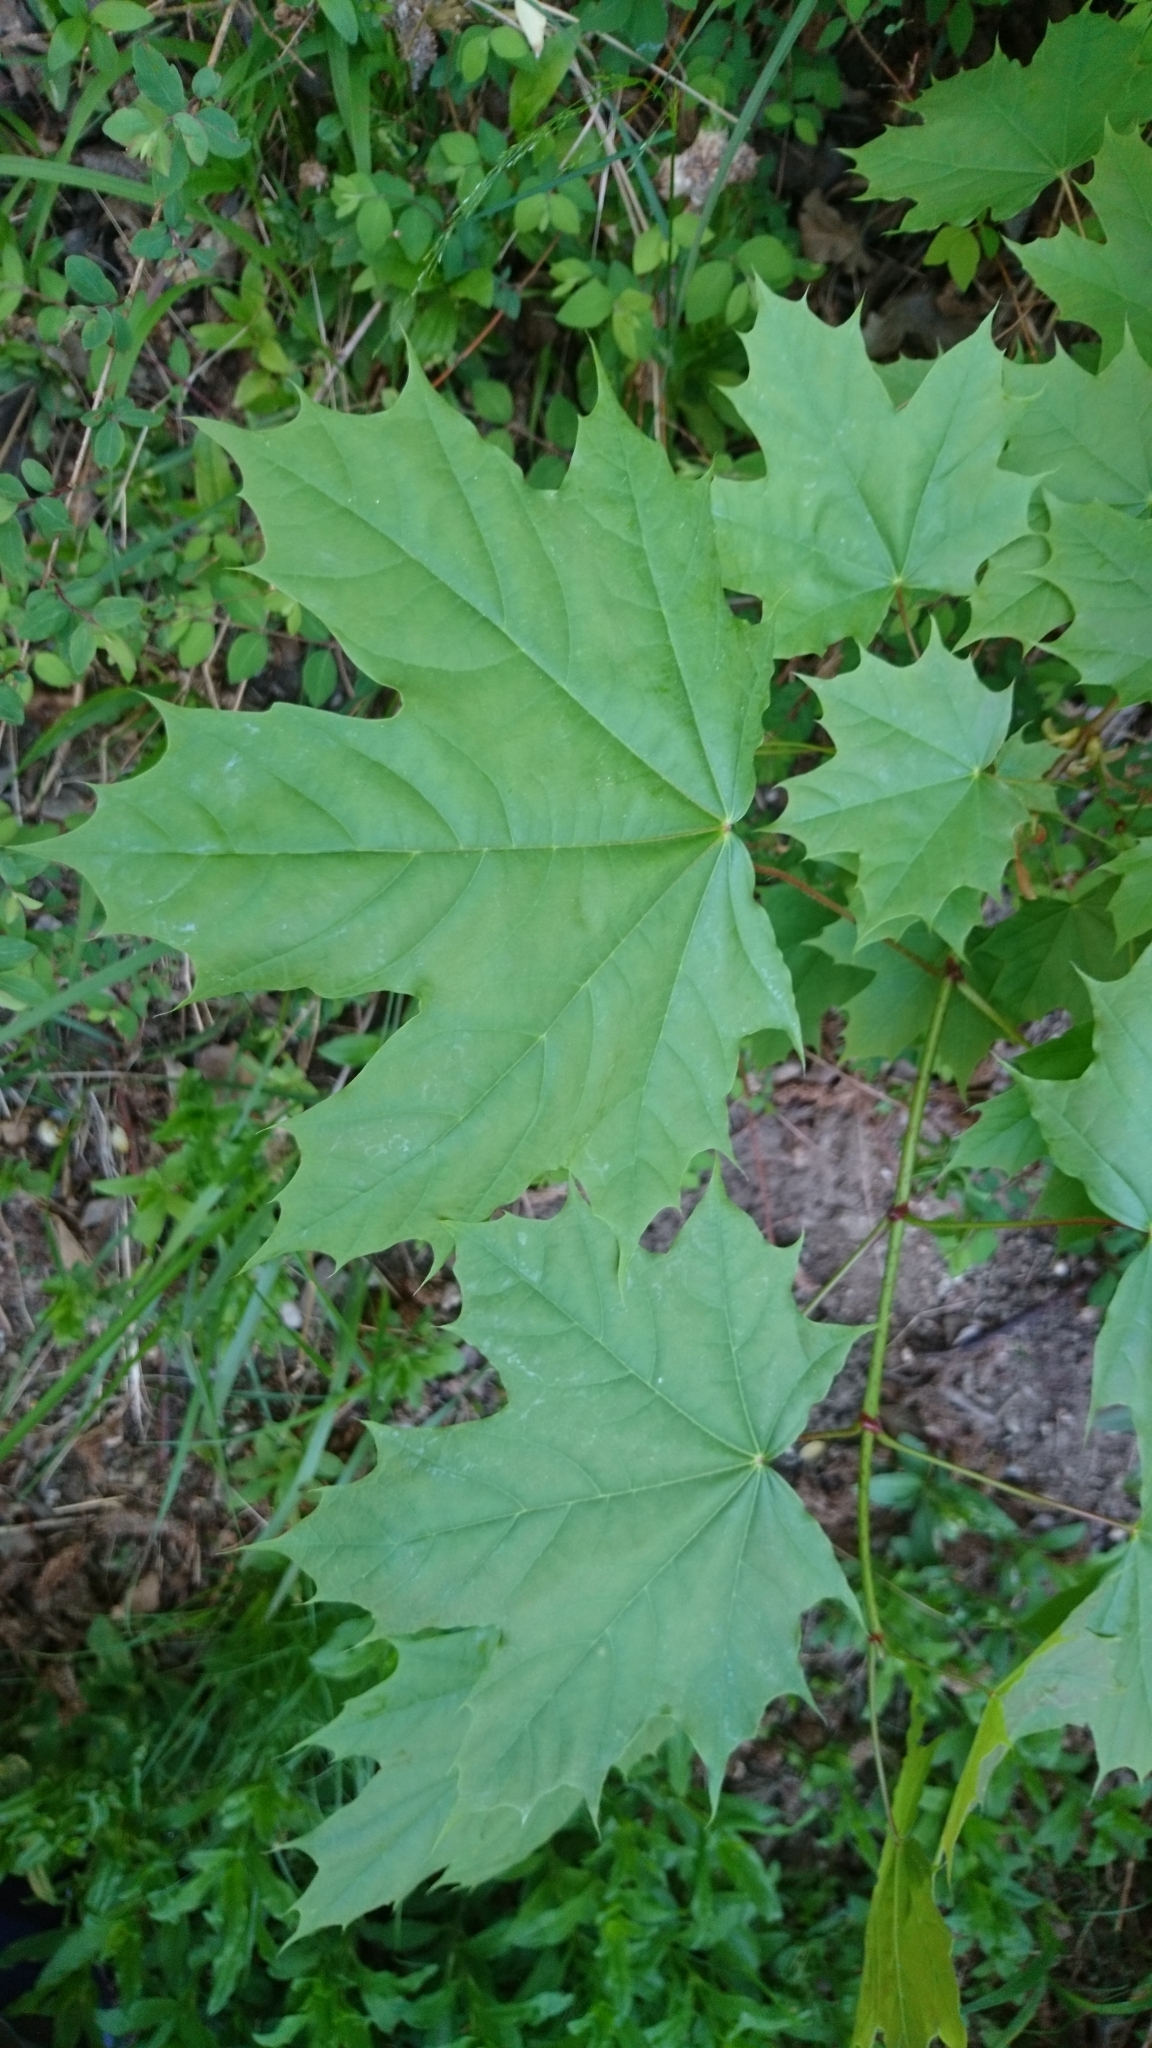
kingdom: Plantae
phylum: Tracheophyta
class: Magnoliopsida
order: Sapindales
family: Sapindaceae
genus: Acer
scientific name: Acer platanoides
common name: Norway maple
